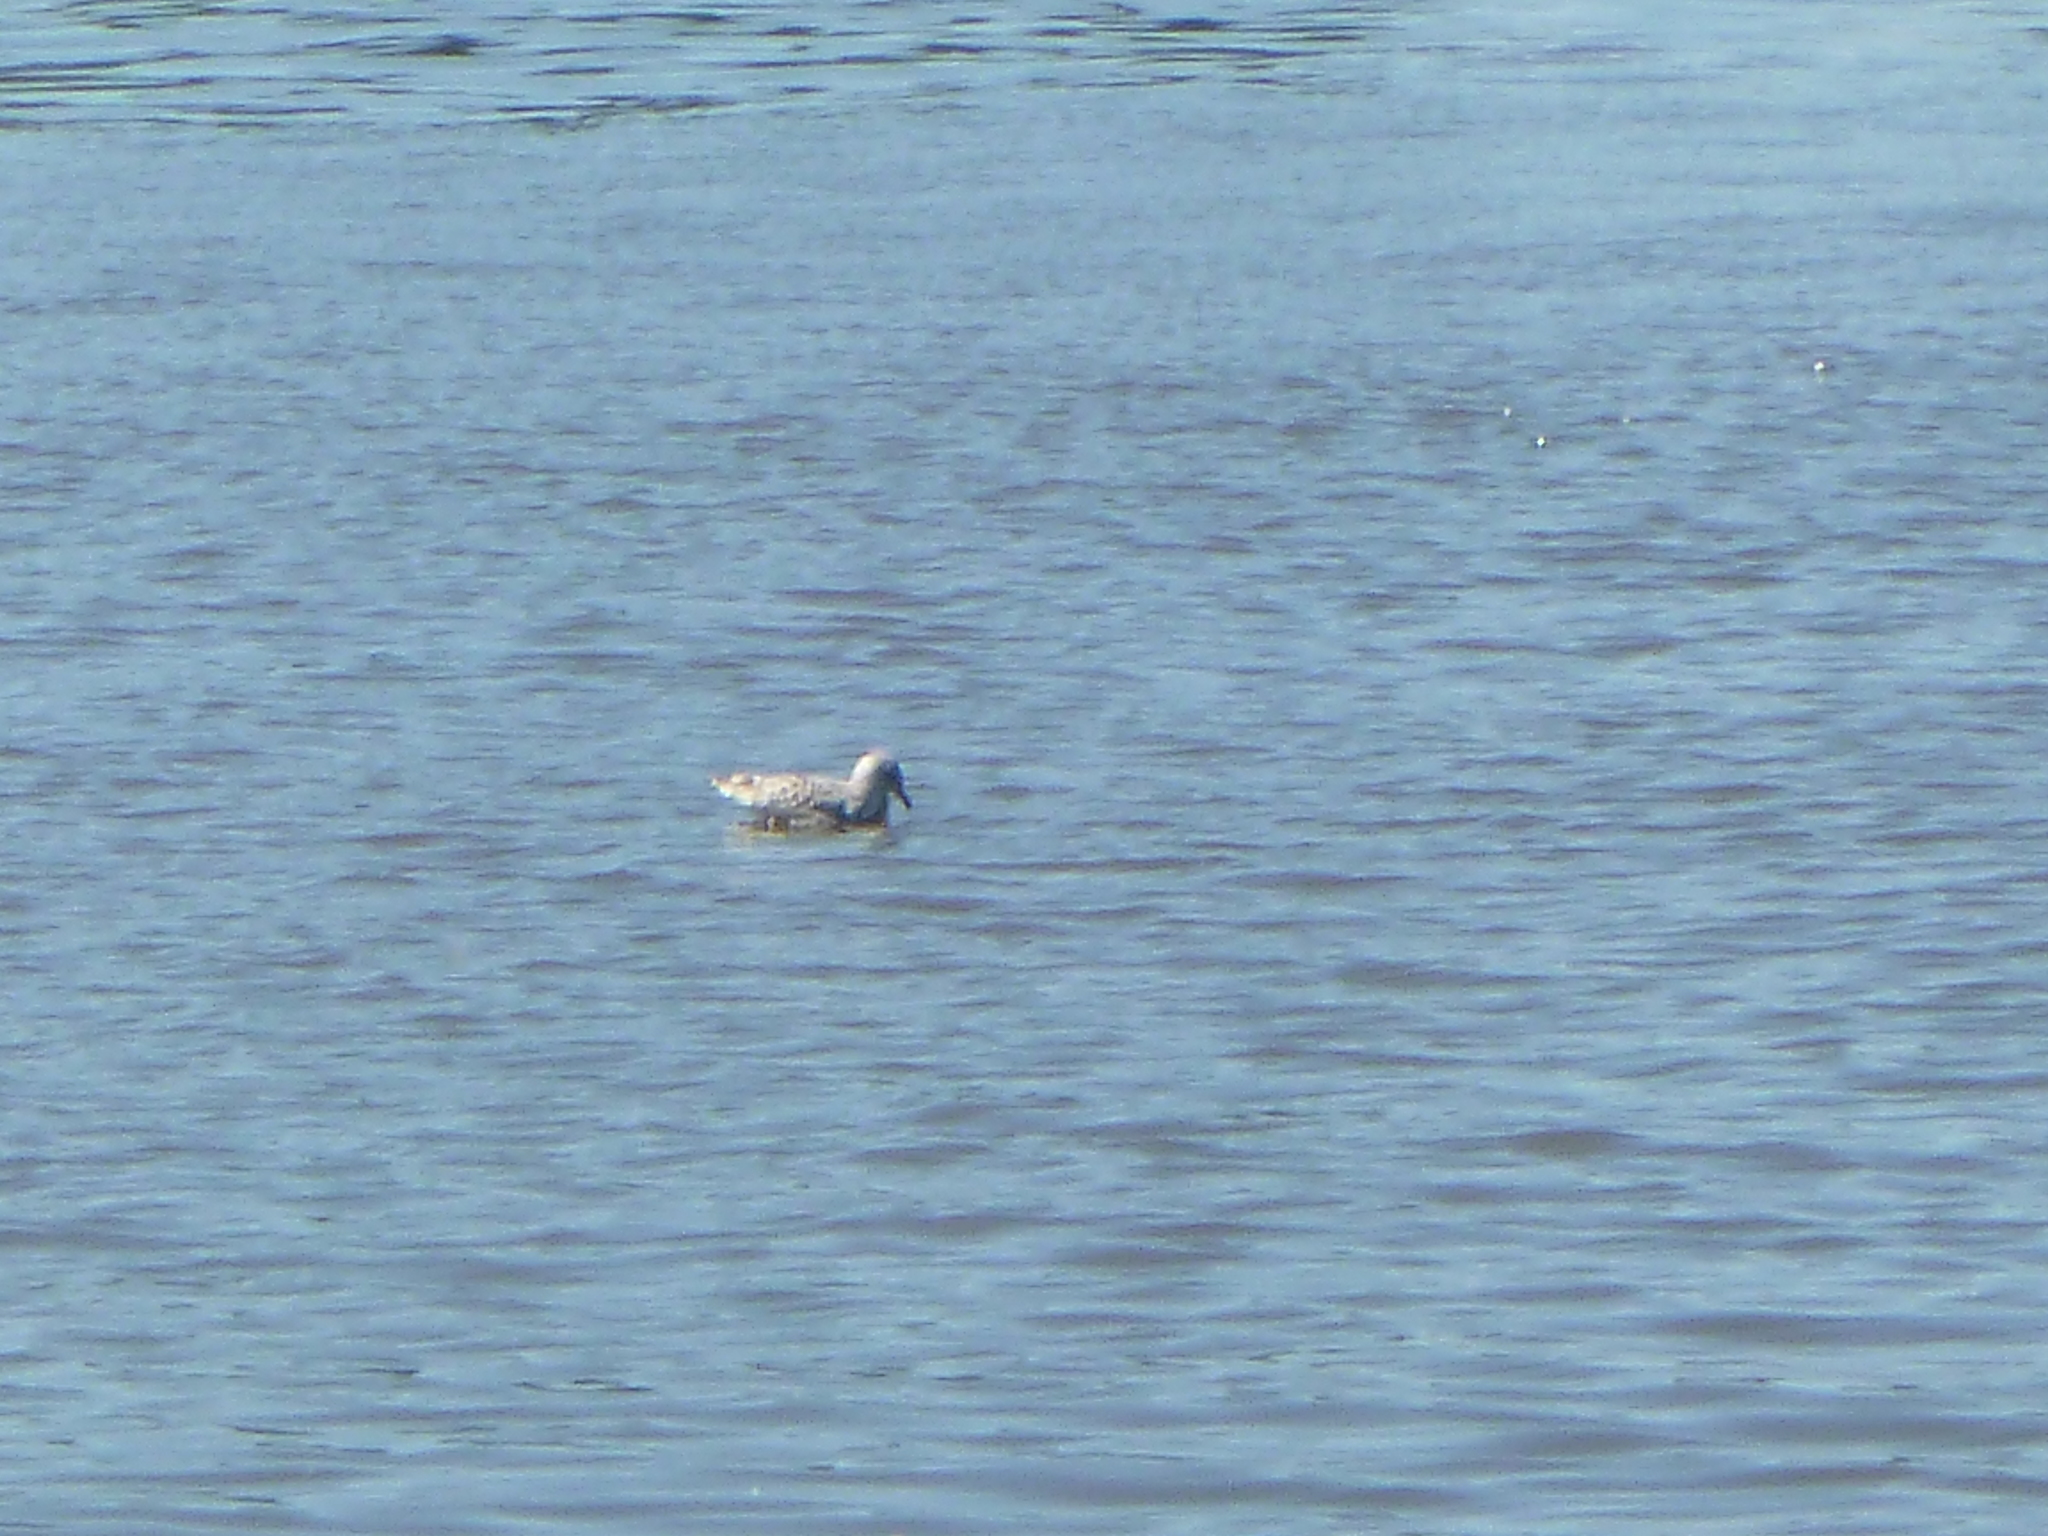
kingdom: Animalia
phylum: Chordata
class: Aves
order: Charadriiformes
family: Laridae
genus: Larus
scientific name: Larus delawarensis
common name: Ring-billed gull
